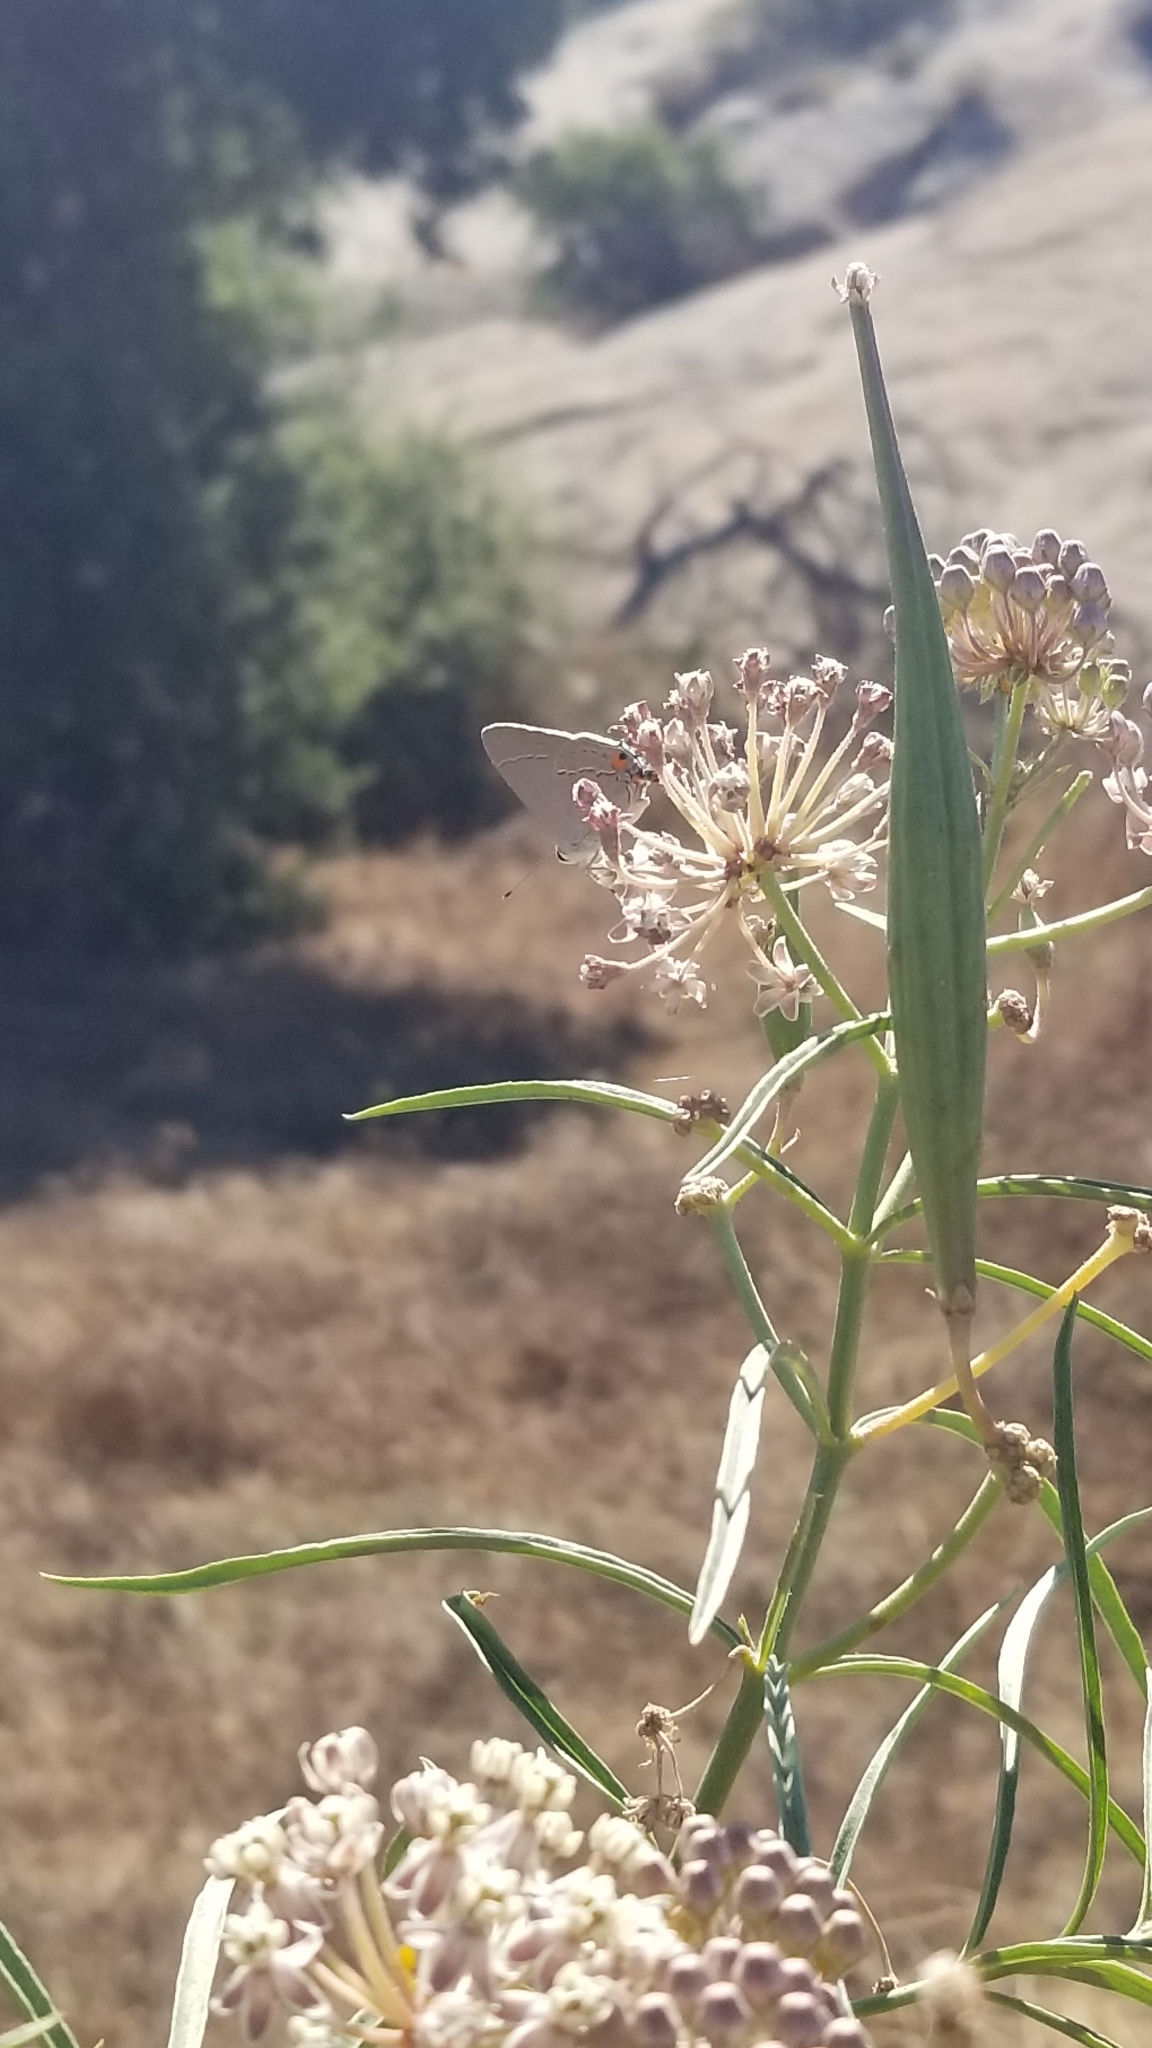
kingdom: Animalia
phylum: Arthropoda
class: Insecta
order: Lepidoptera
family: Lycaenidae
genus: Strymon
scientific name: Strymon melinus
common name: Gray hairstreak
